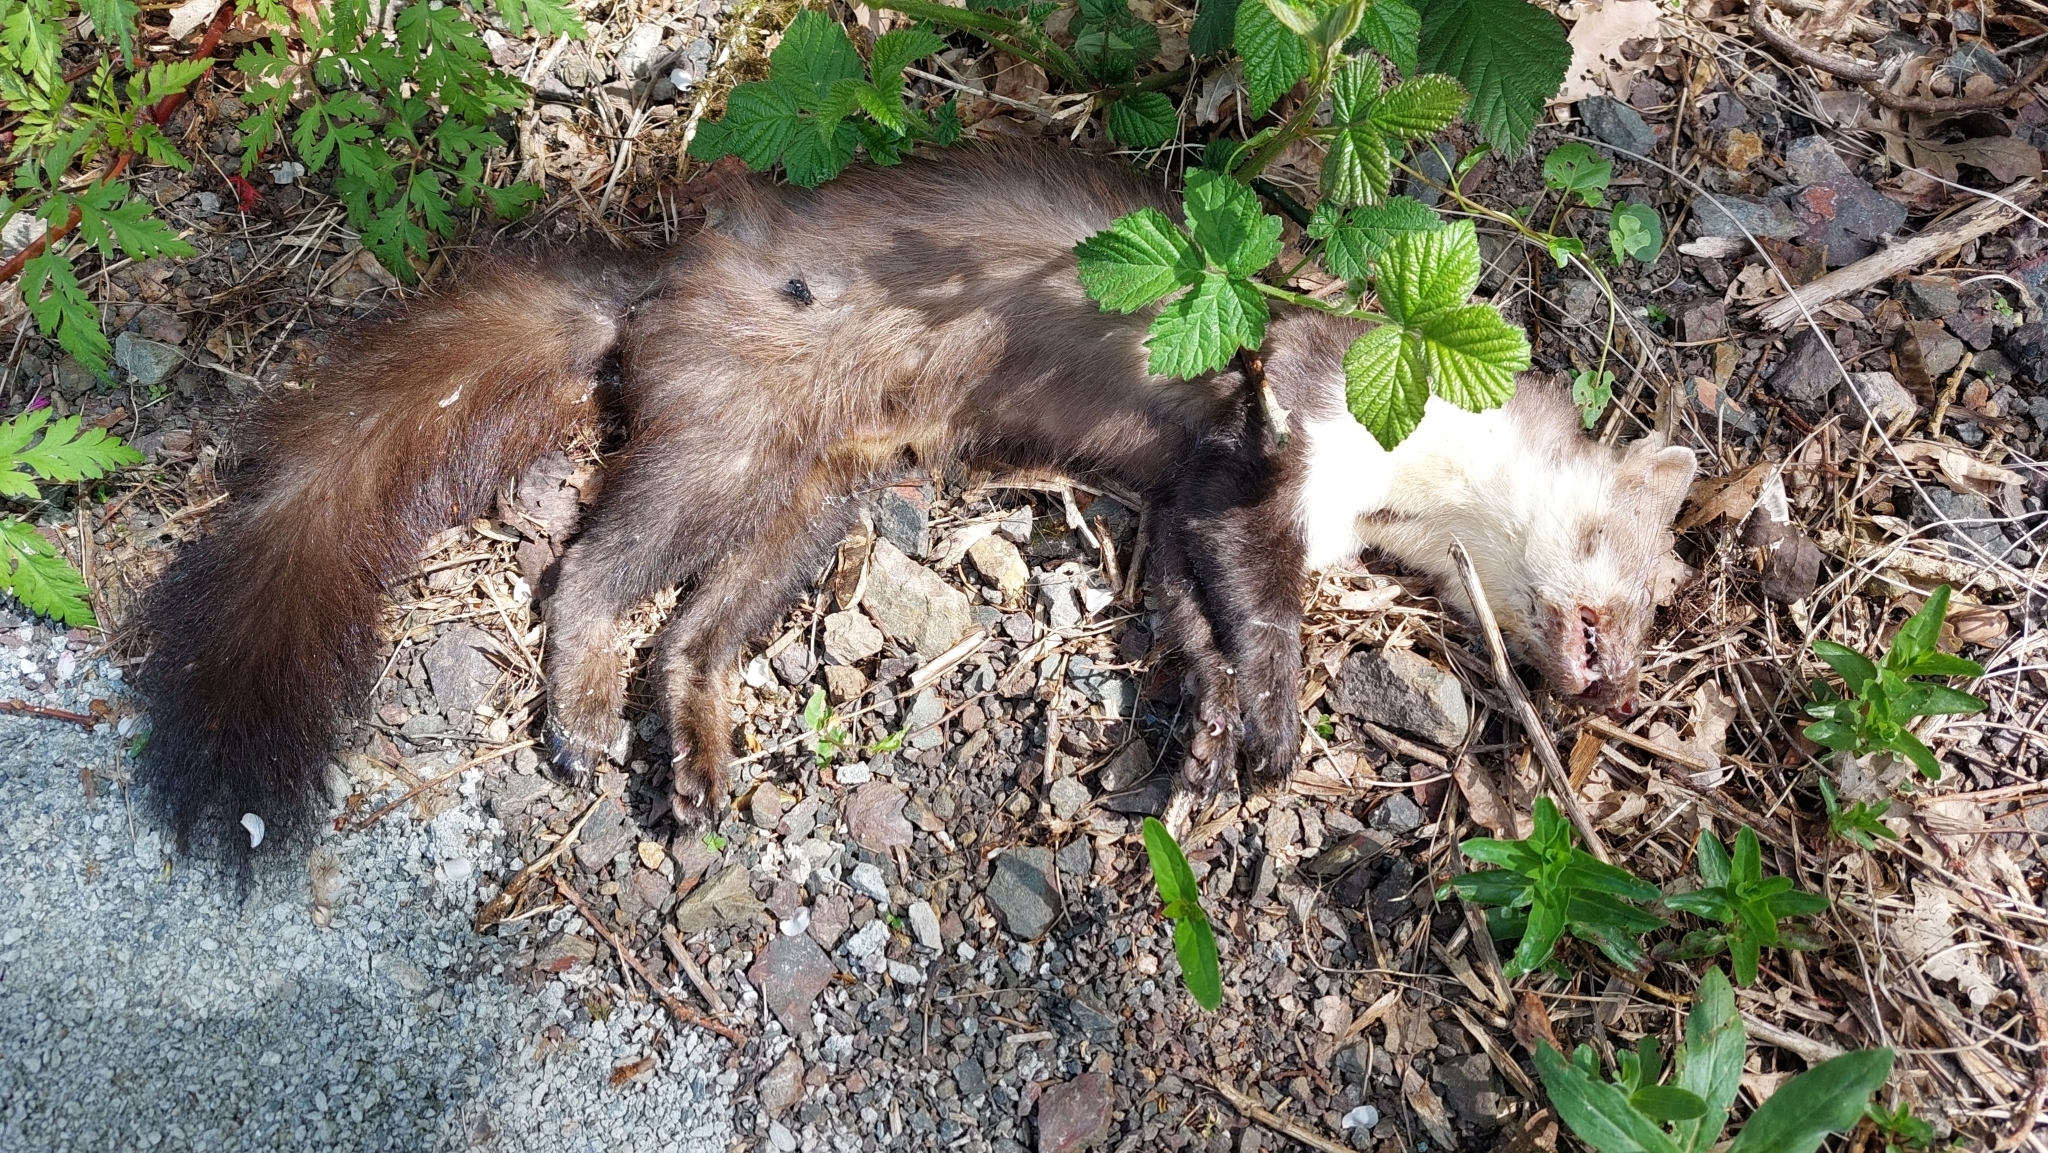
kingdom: Animalia
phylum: Chordata
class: Mammalia
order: Carnivora
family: Mustelidae
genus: Martes
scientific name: Martes foina
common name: Beech marten
